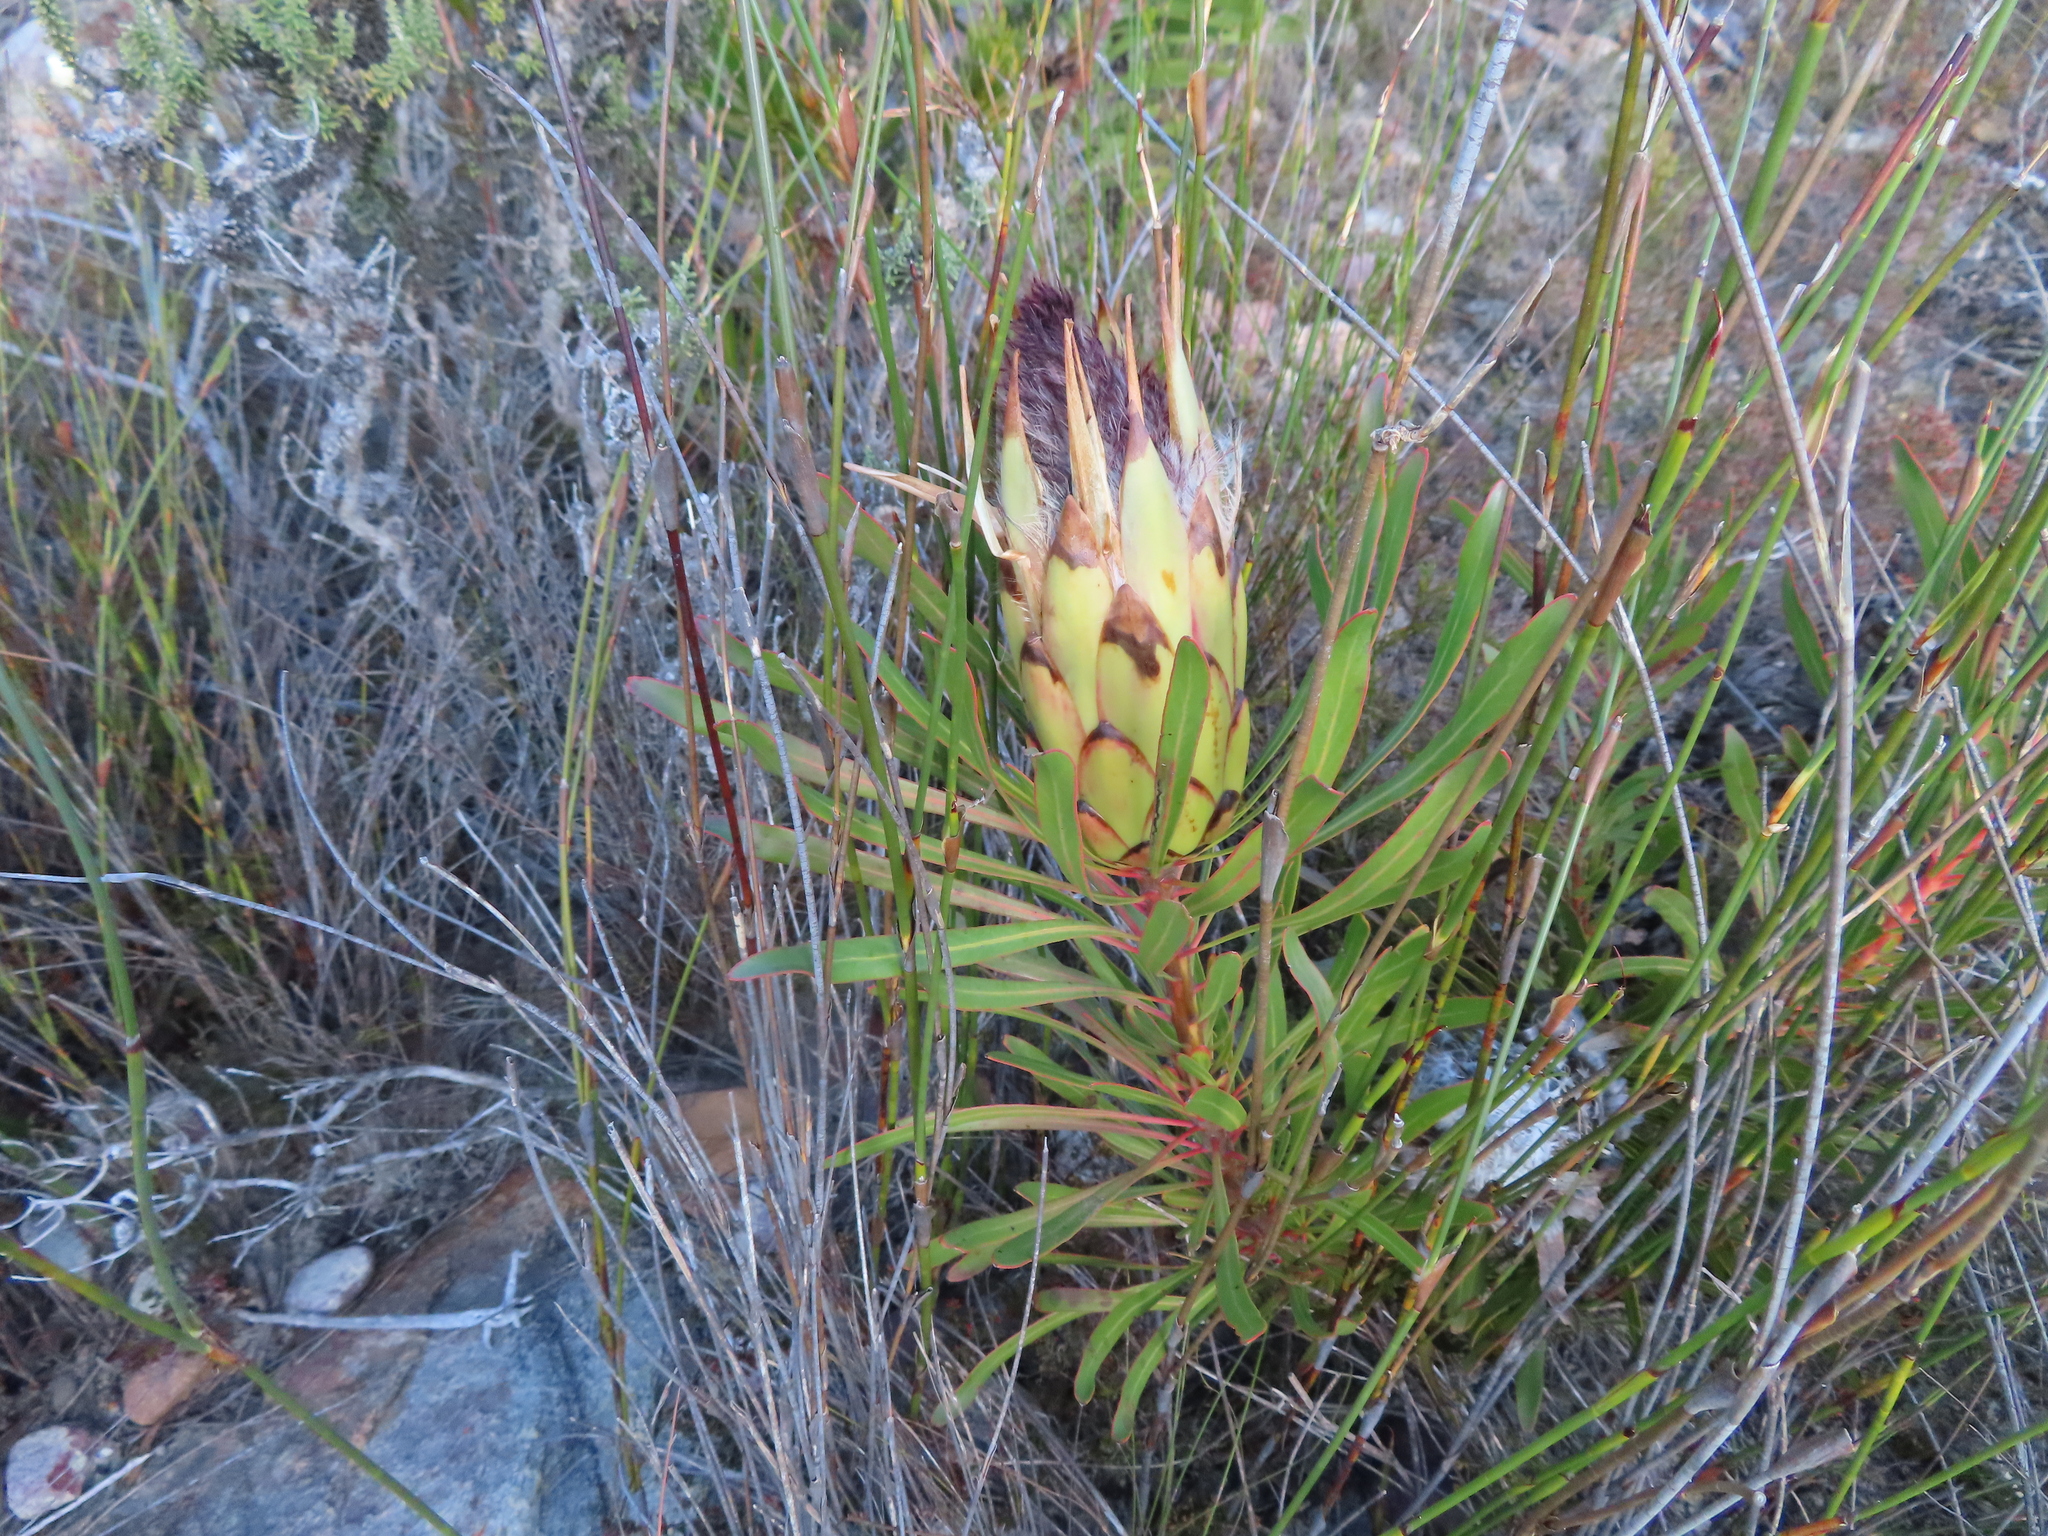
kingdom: Plantae
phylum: Tracheophyta
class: Magnoliopsida
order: Proteales
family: Proteaceae
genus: Protea
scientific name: Protea longifolia
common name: Long-leaf sugarbush
